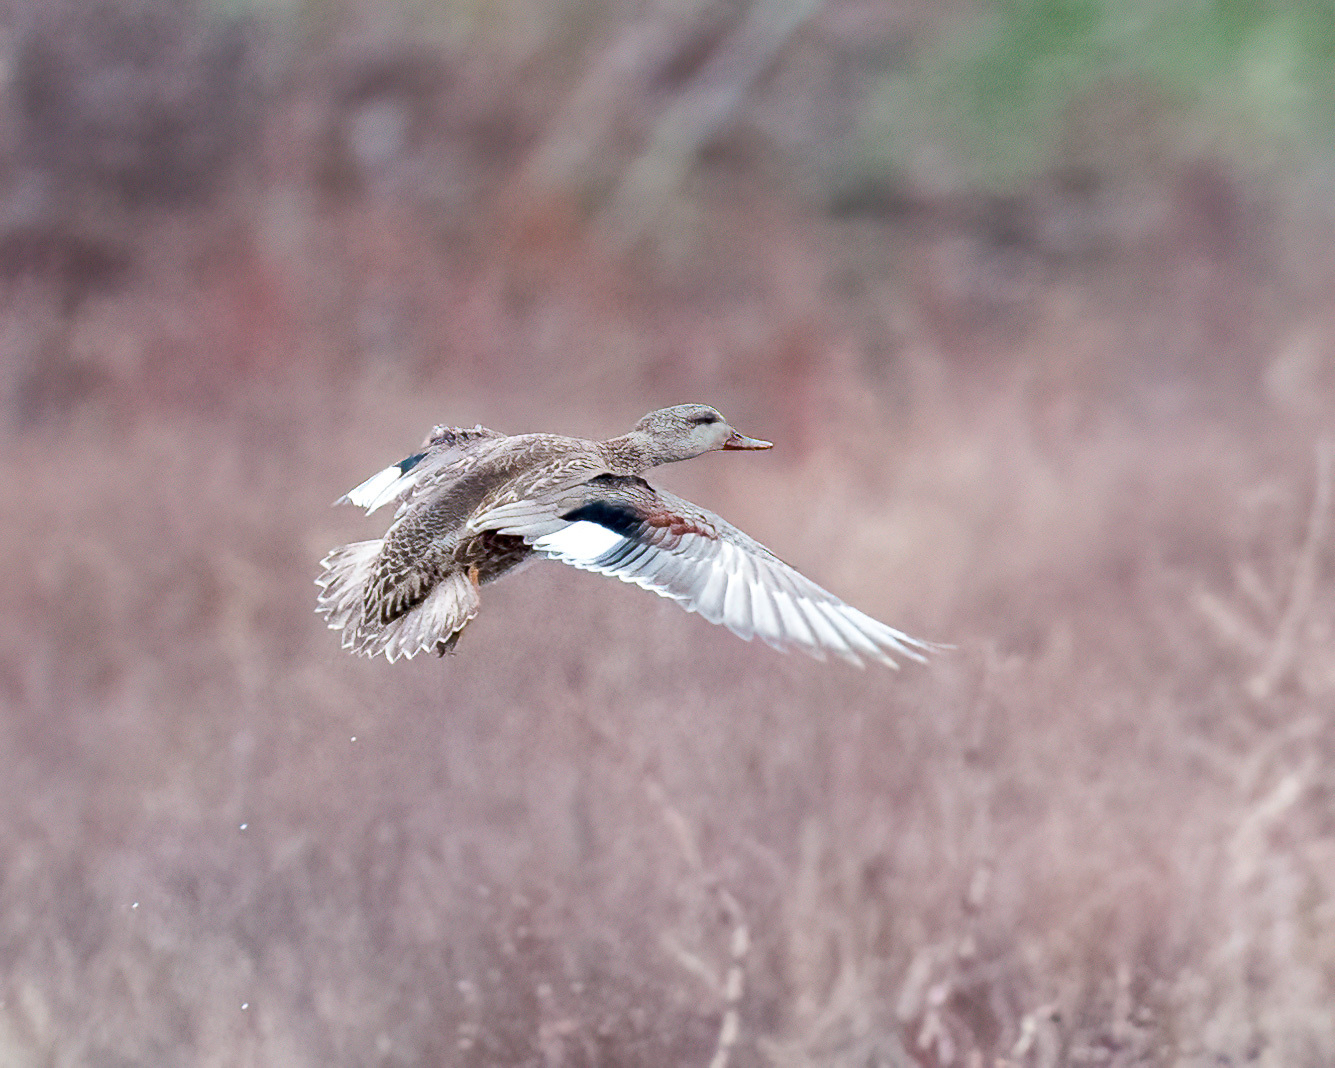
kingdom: Animalia
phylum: Chordata
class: Aves
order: Anseriformes
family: Anatidae
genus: Mareca
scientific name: Mareca strepera
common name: Gadwall
